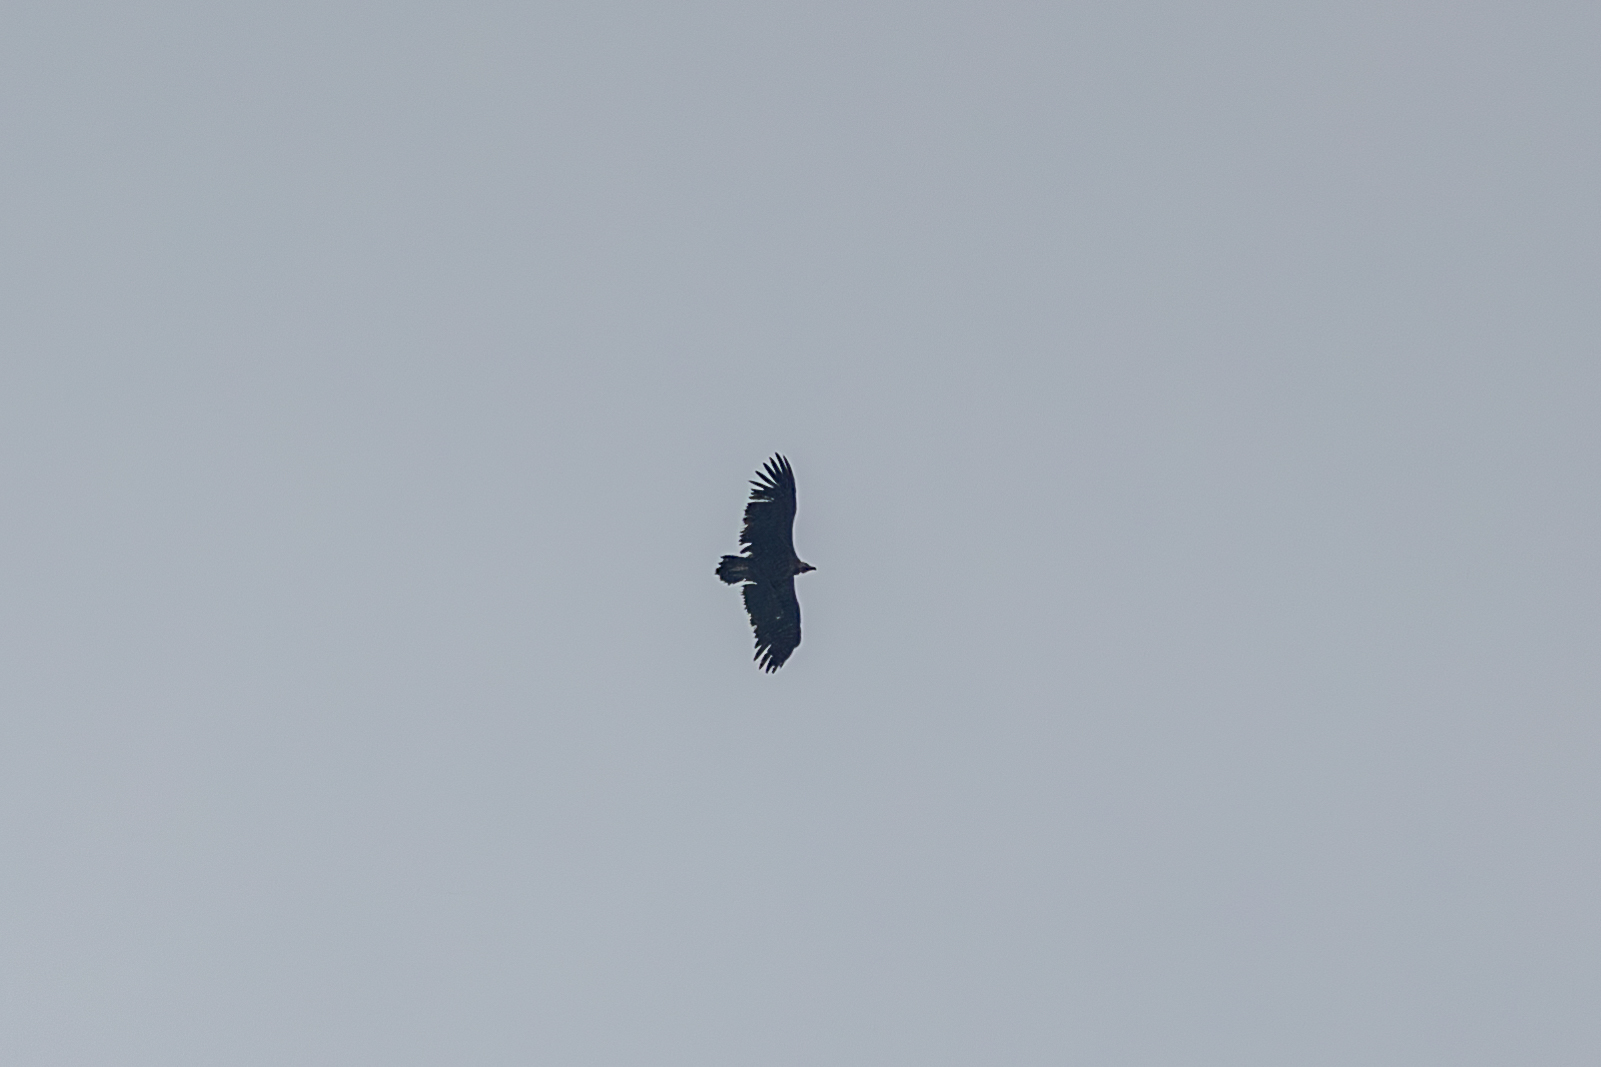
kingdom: Animalia
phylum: Chordata
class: Aves
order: Accipitriformes
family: Accipitridae
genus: Aegypius
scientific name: Aegypius monachus
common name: Cinereous vulture
